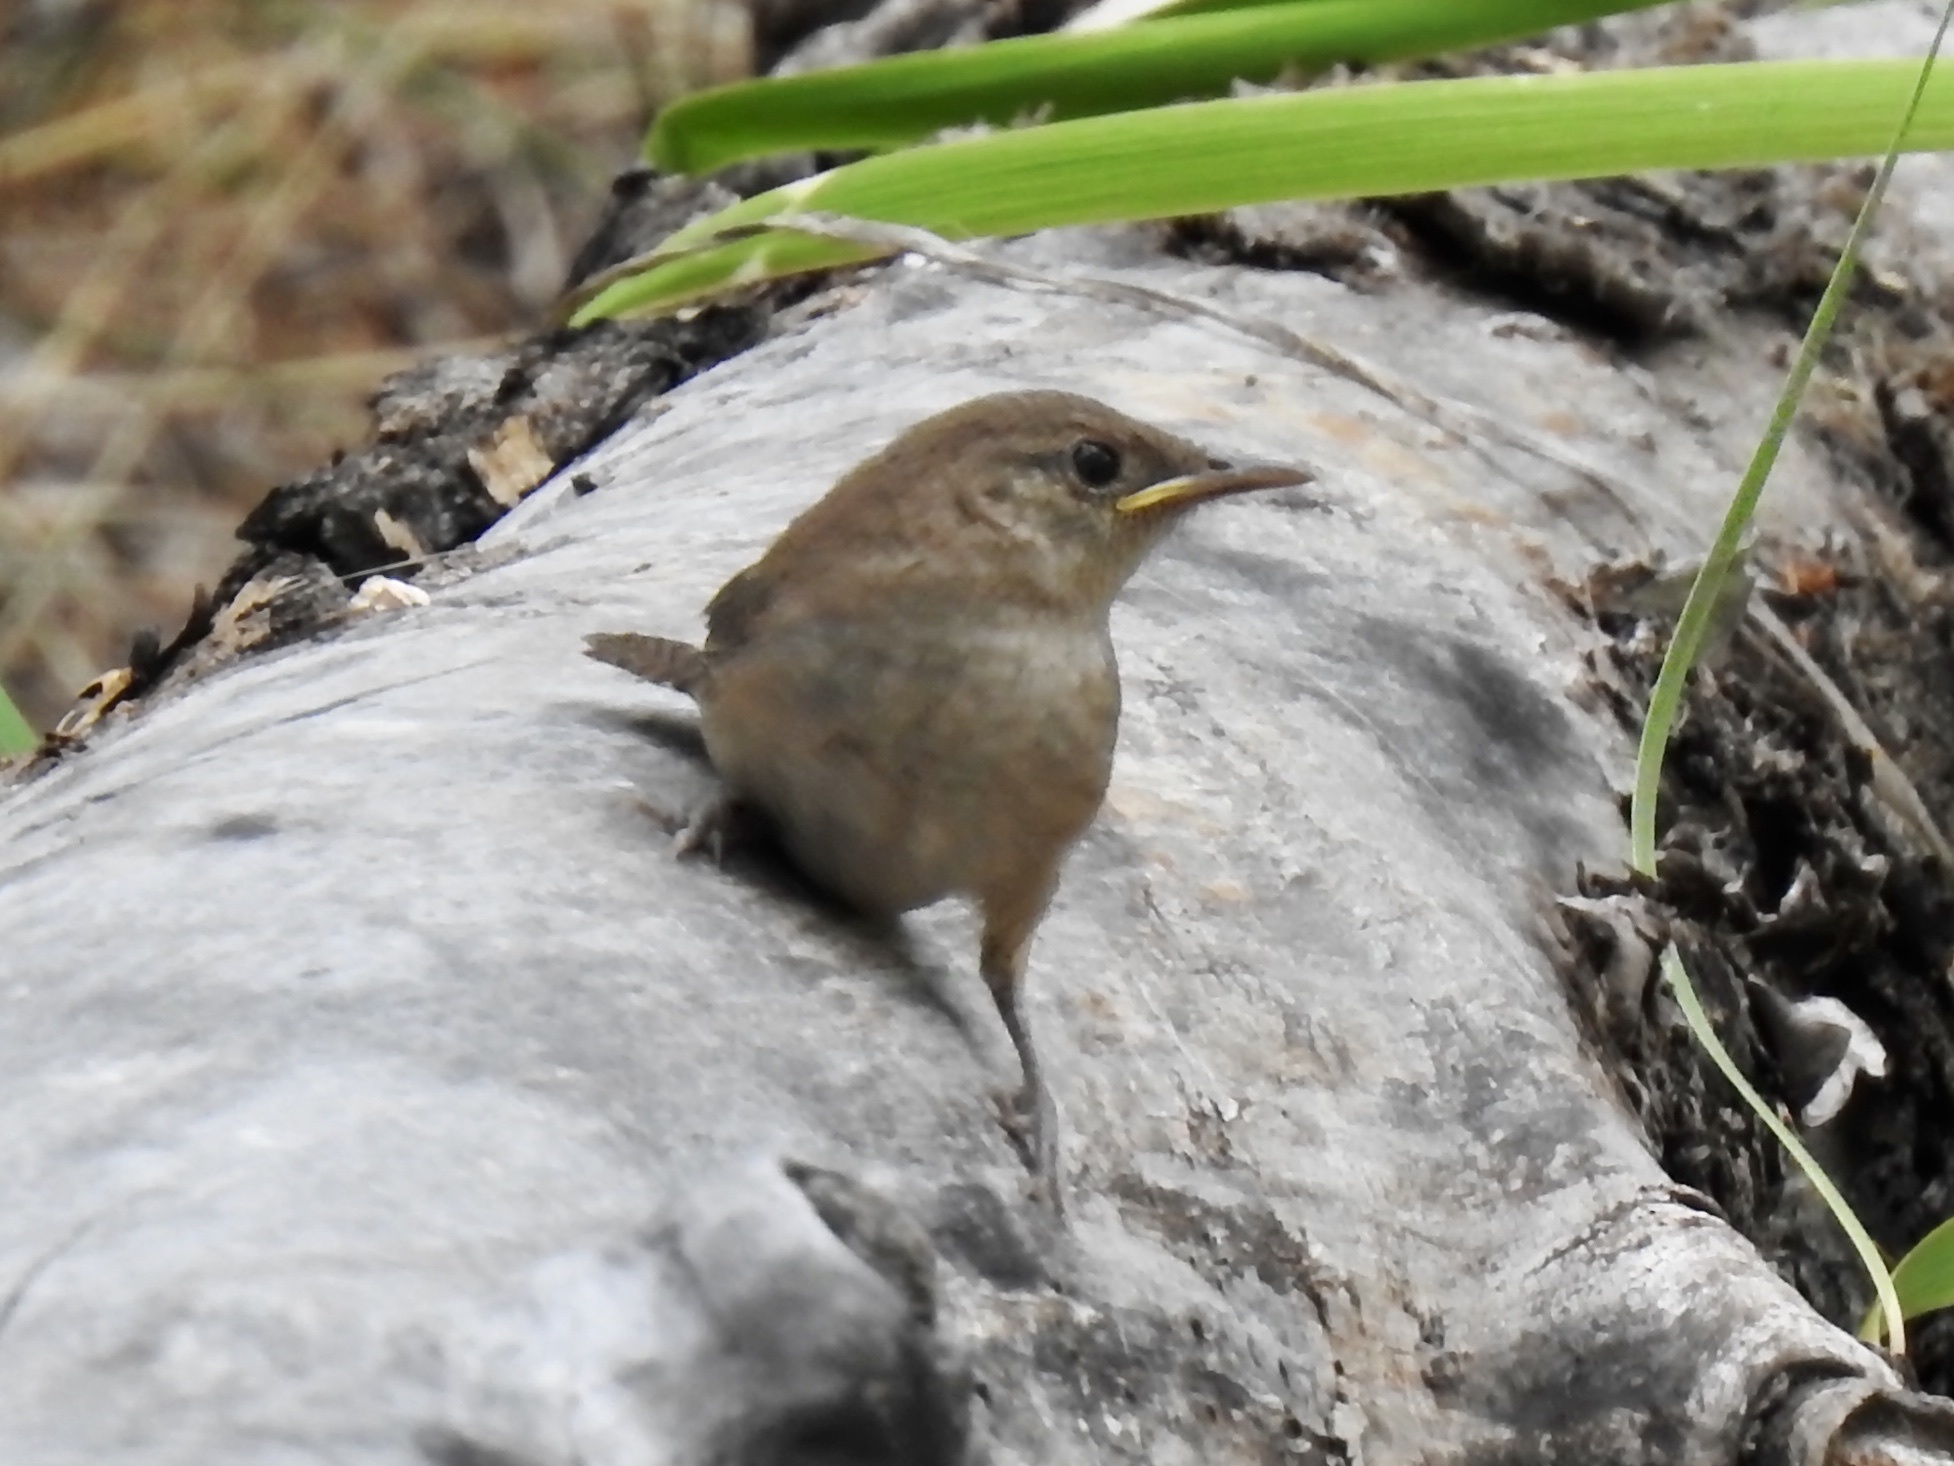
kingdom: Animalia
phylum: Chordata
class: Aves
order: Passeriformes
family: Troglodytidae
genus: Troglodytes
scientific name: Troglodytes aedon
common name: House wren
